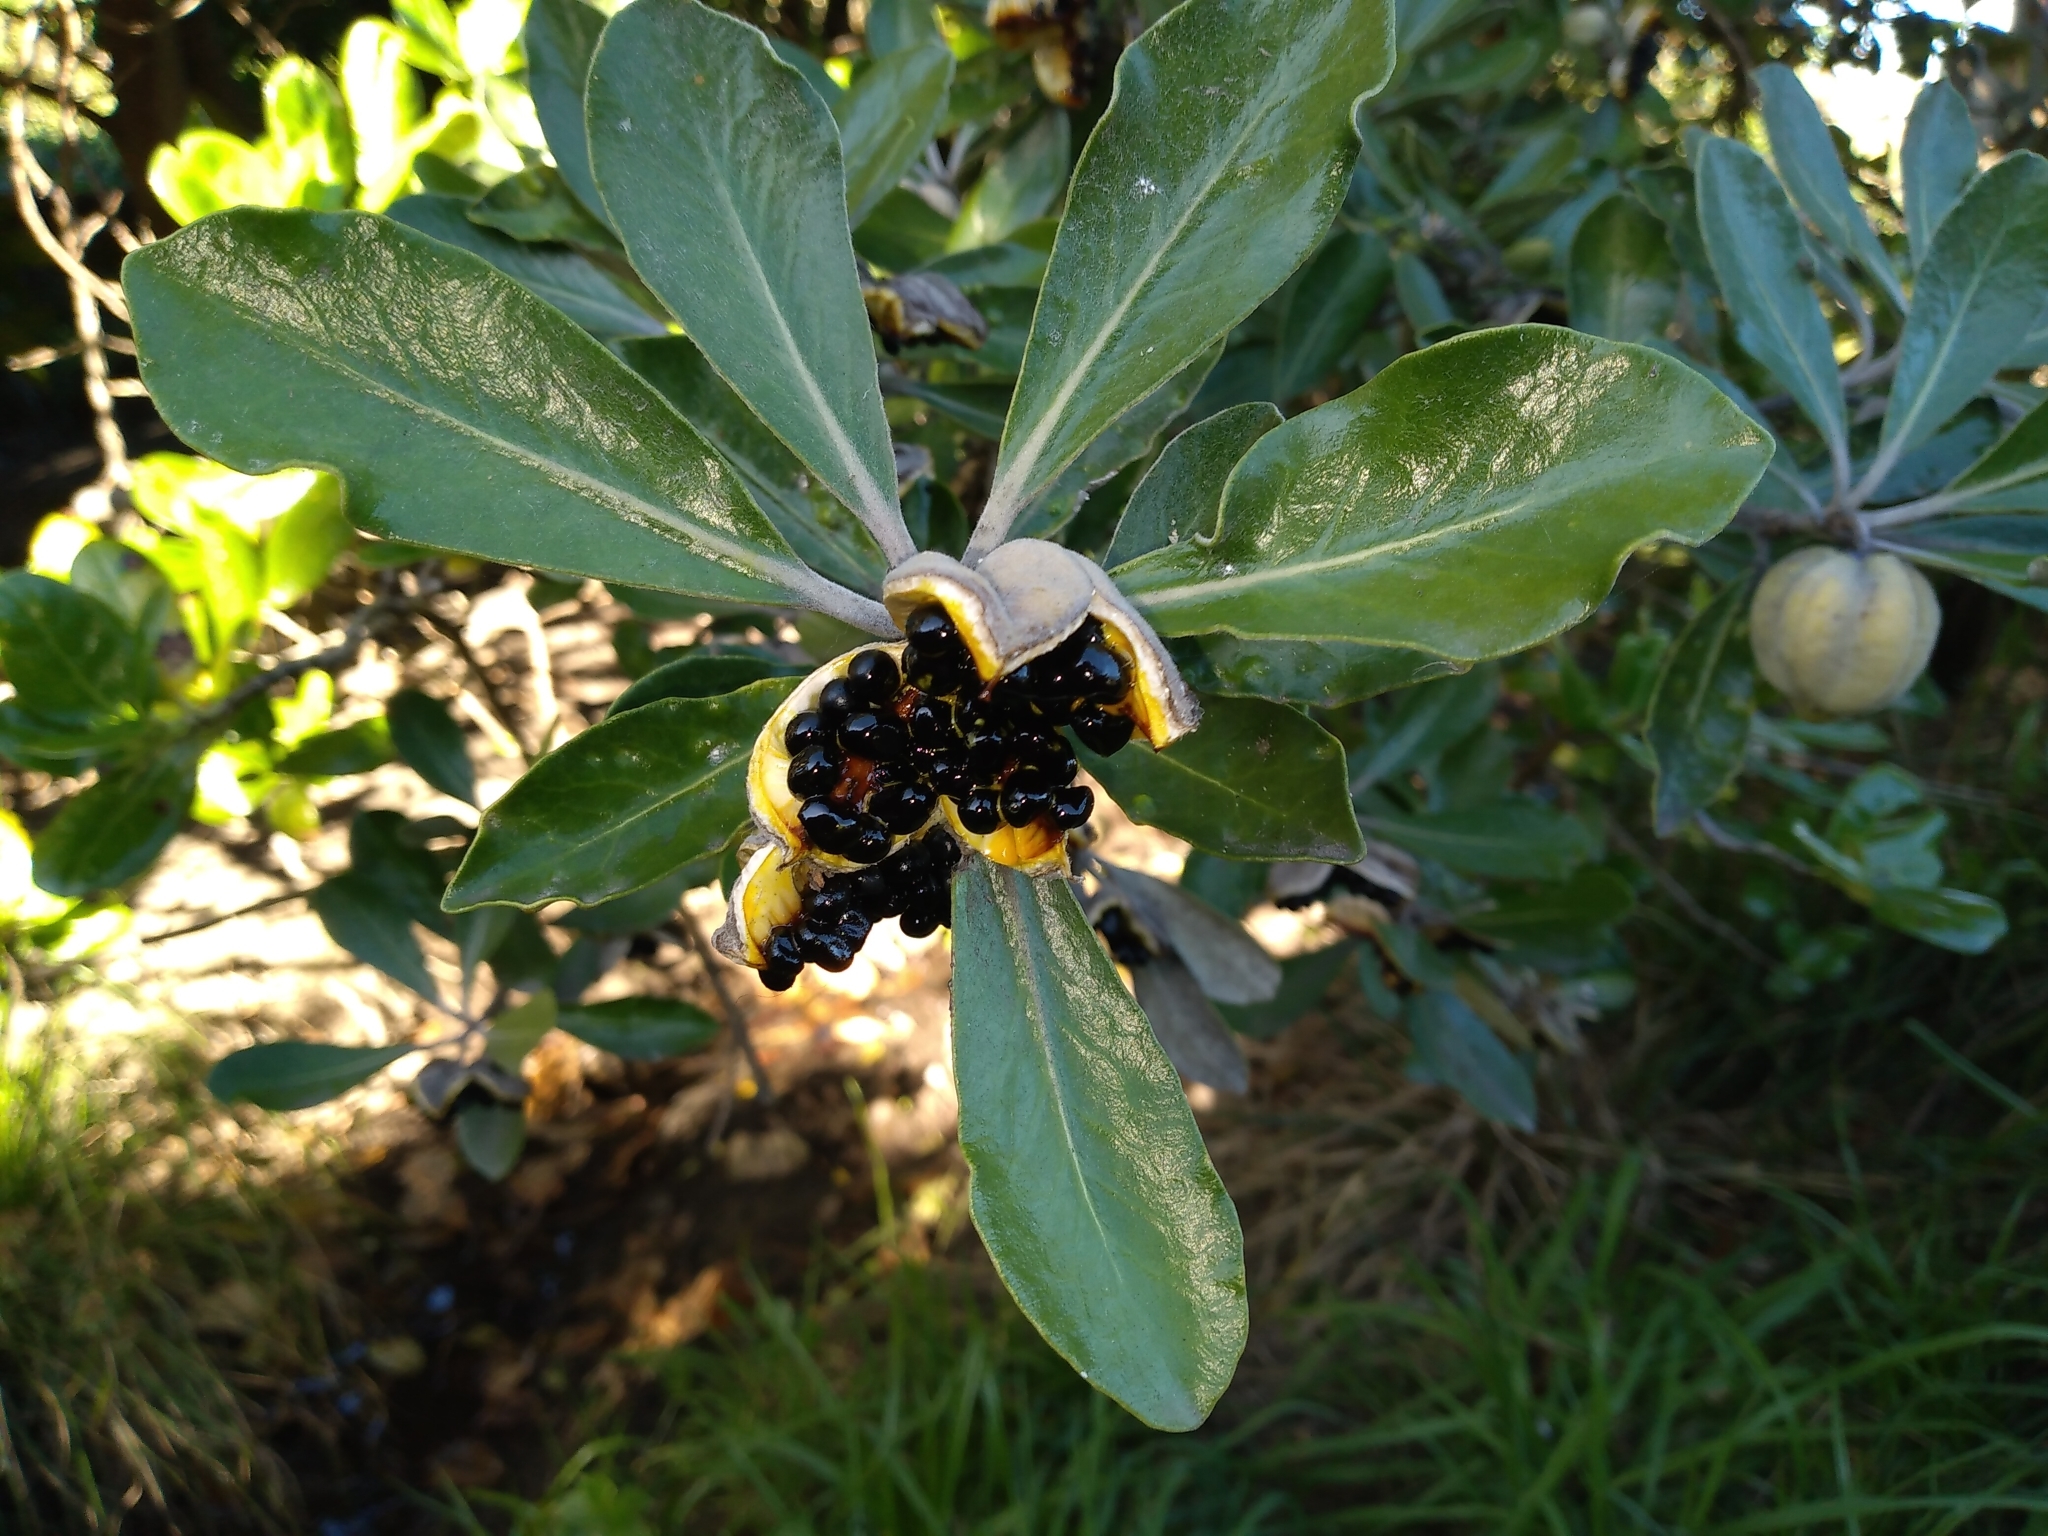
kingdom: Plantae
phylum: Tracheophyta
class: Magnoliopsida
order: Apiales
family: Pittosporaceae
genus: Pittosporum
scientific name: Pittosporum crassifolium
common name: Karo
